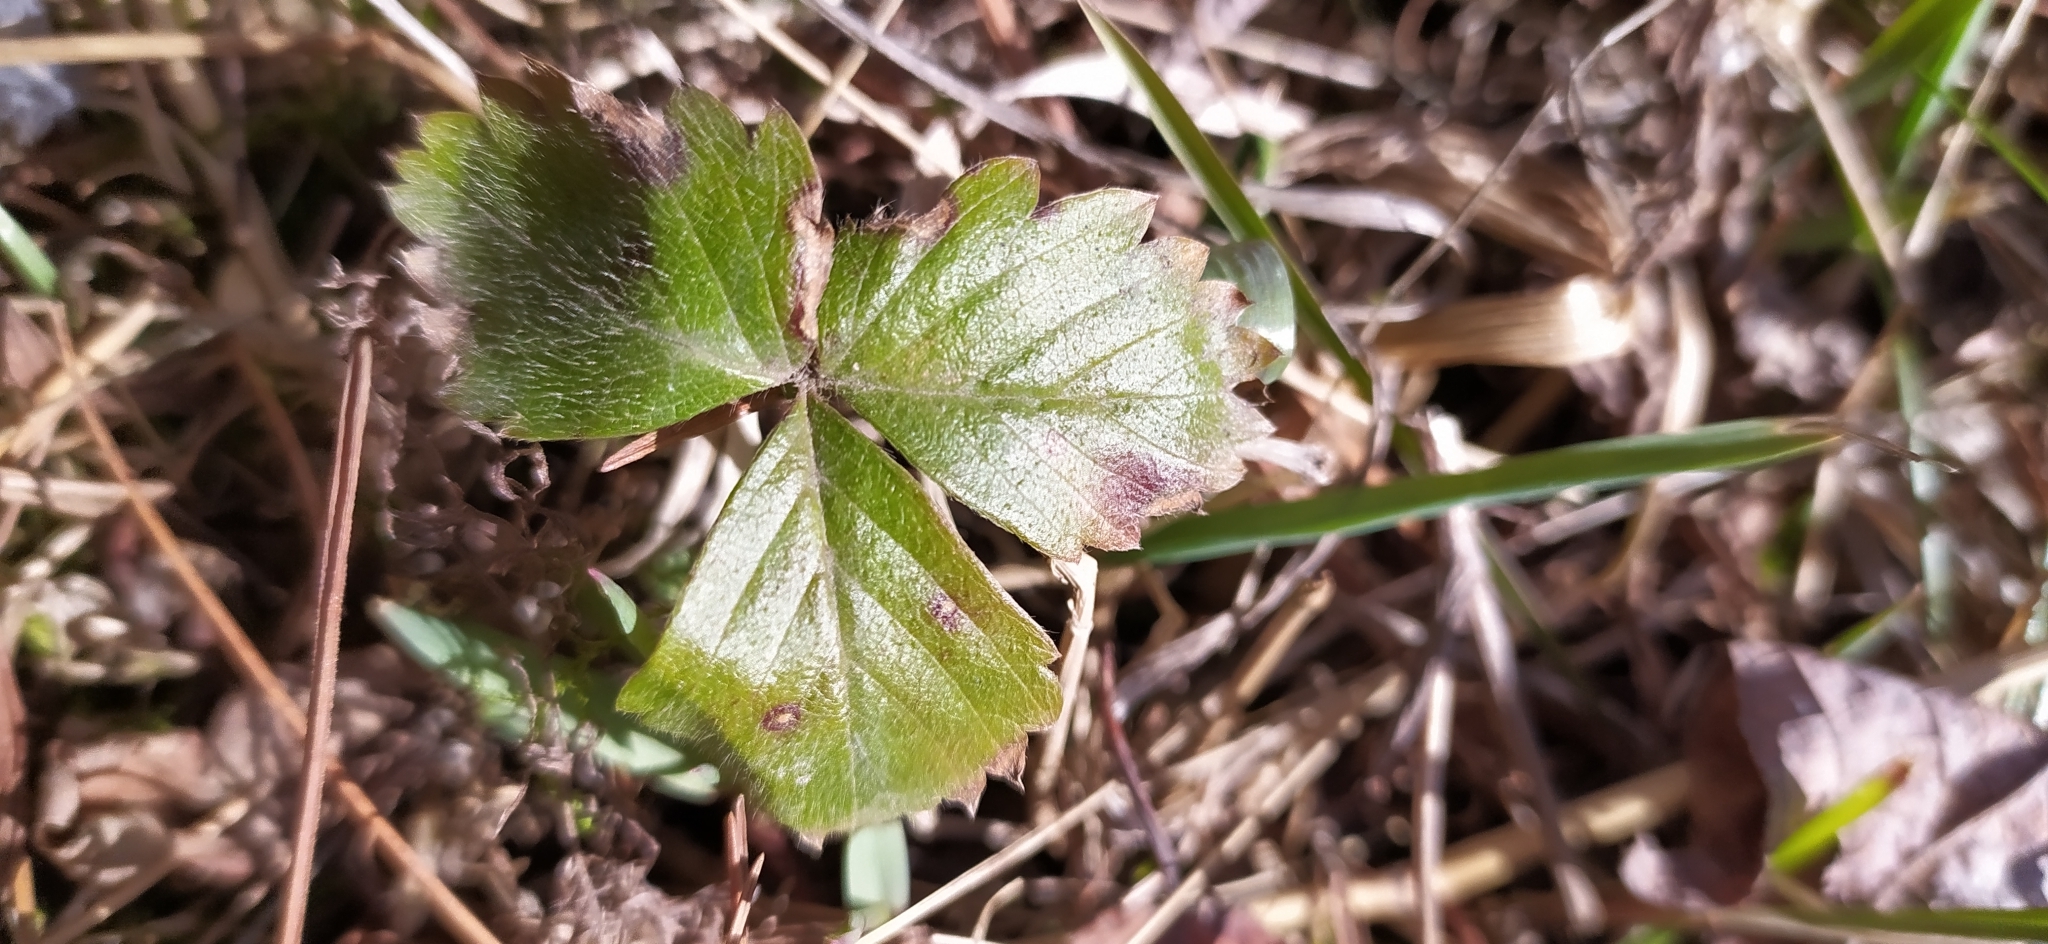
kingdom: Plantae
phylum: Tracheophyta
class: Magnoliopsida
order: Rosales
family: Rosaceae
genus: Fragaria
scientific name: Fragaria vesca
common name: Wild strawberry
